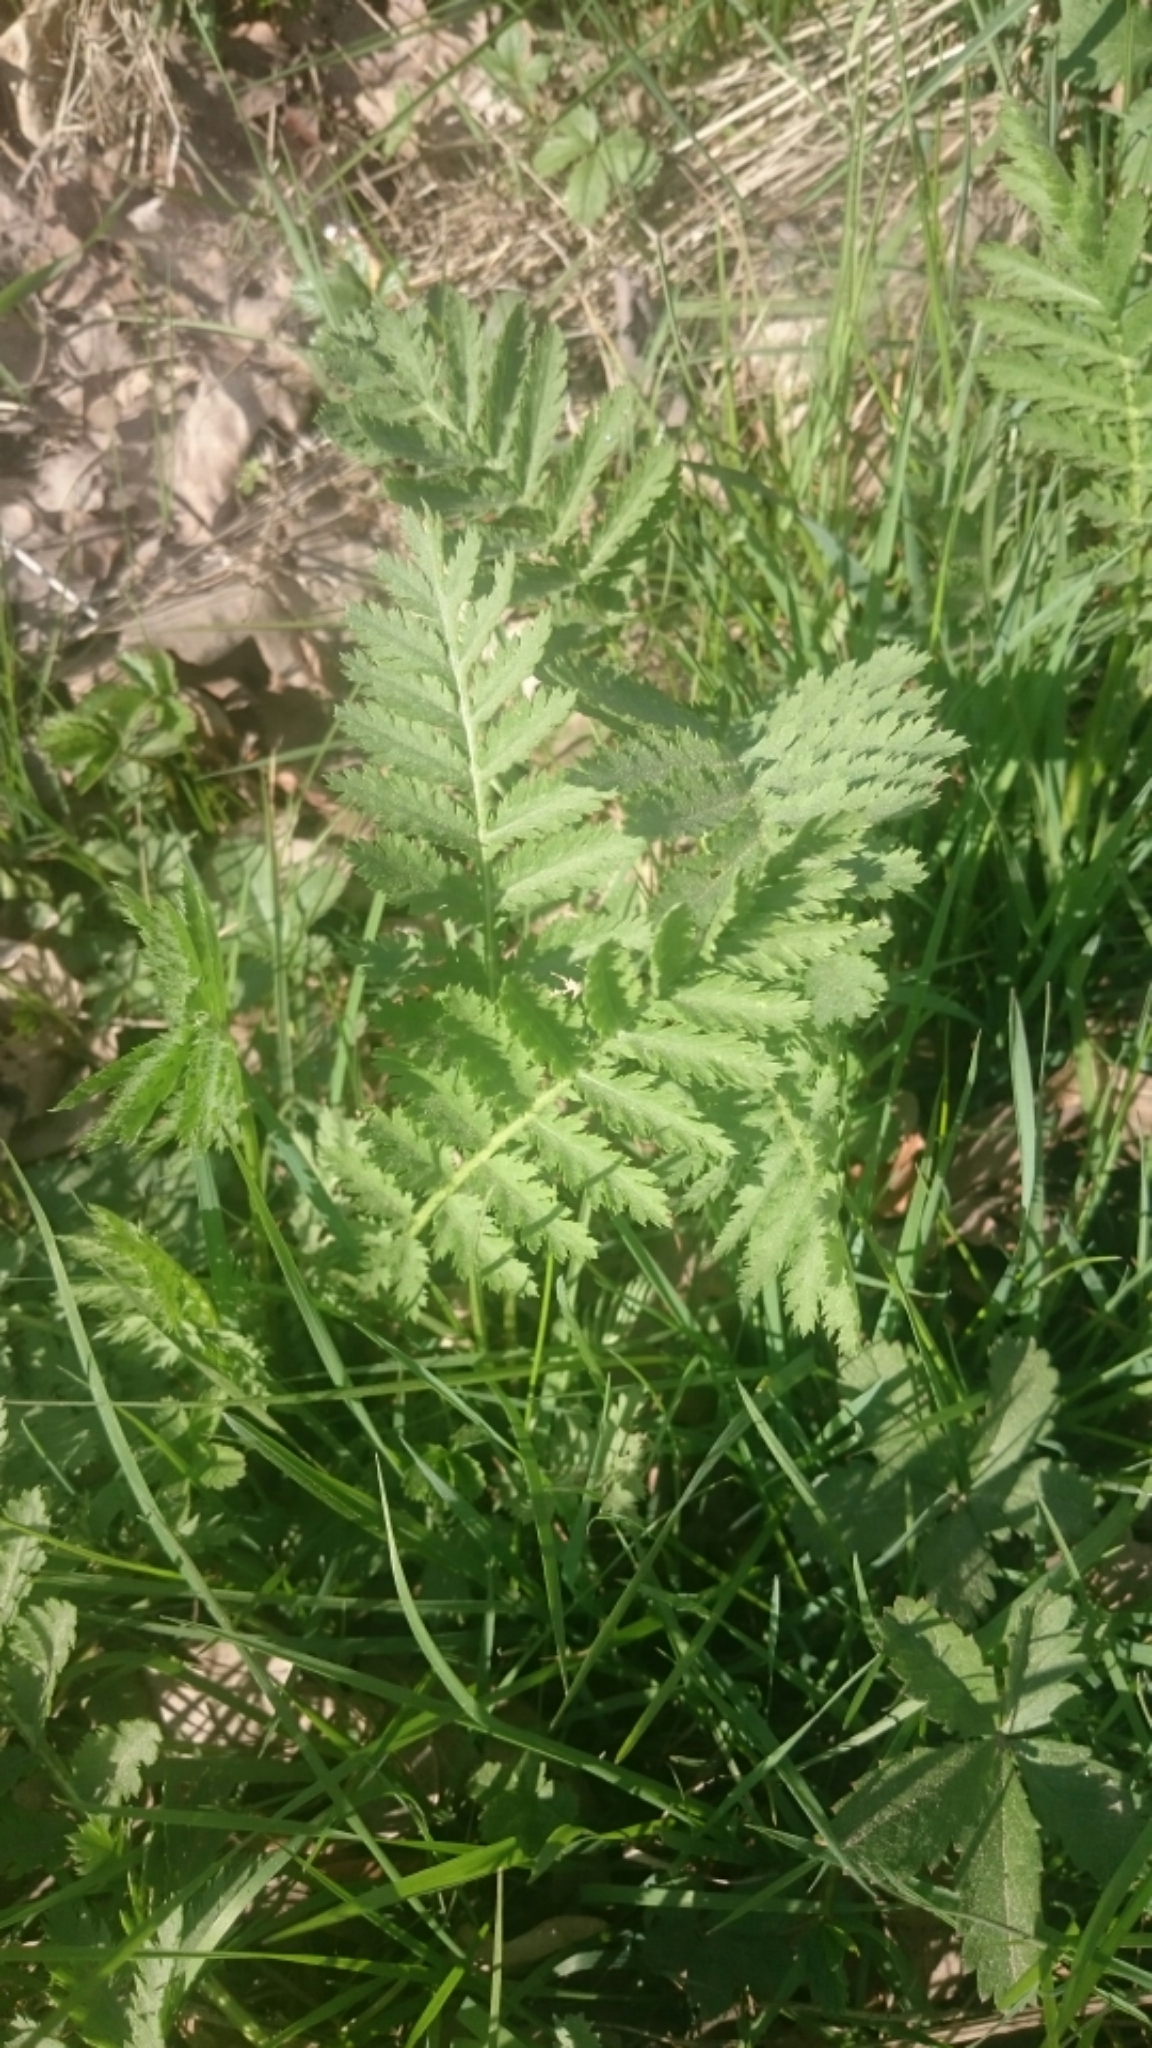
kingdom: Plantae
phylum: Tracheophyta
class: Magnoliopsida
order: Asterales
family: Asteraceae
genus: Tanacetum
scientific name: Tanacetum vulgare
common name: Common tansy
